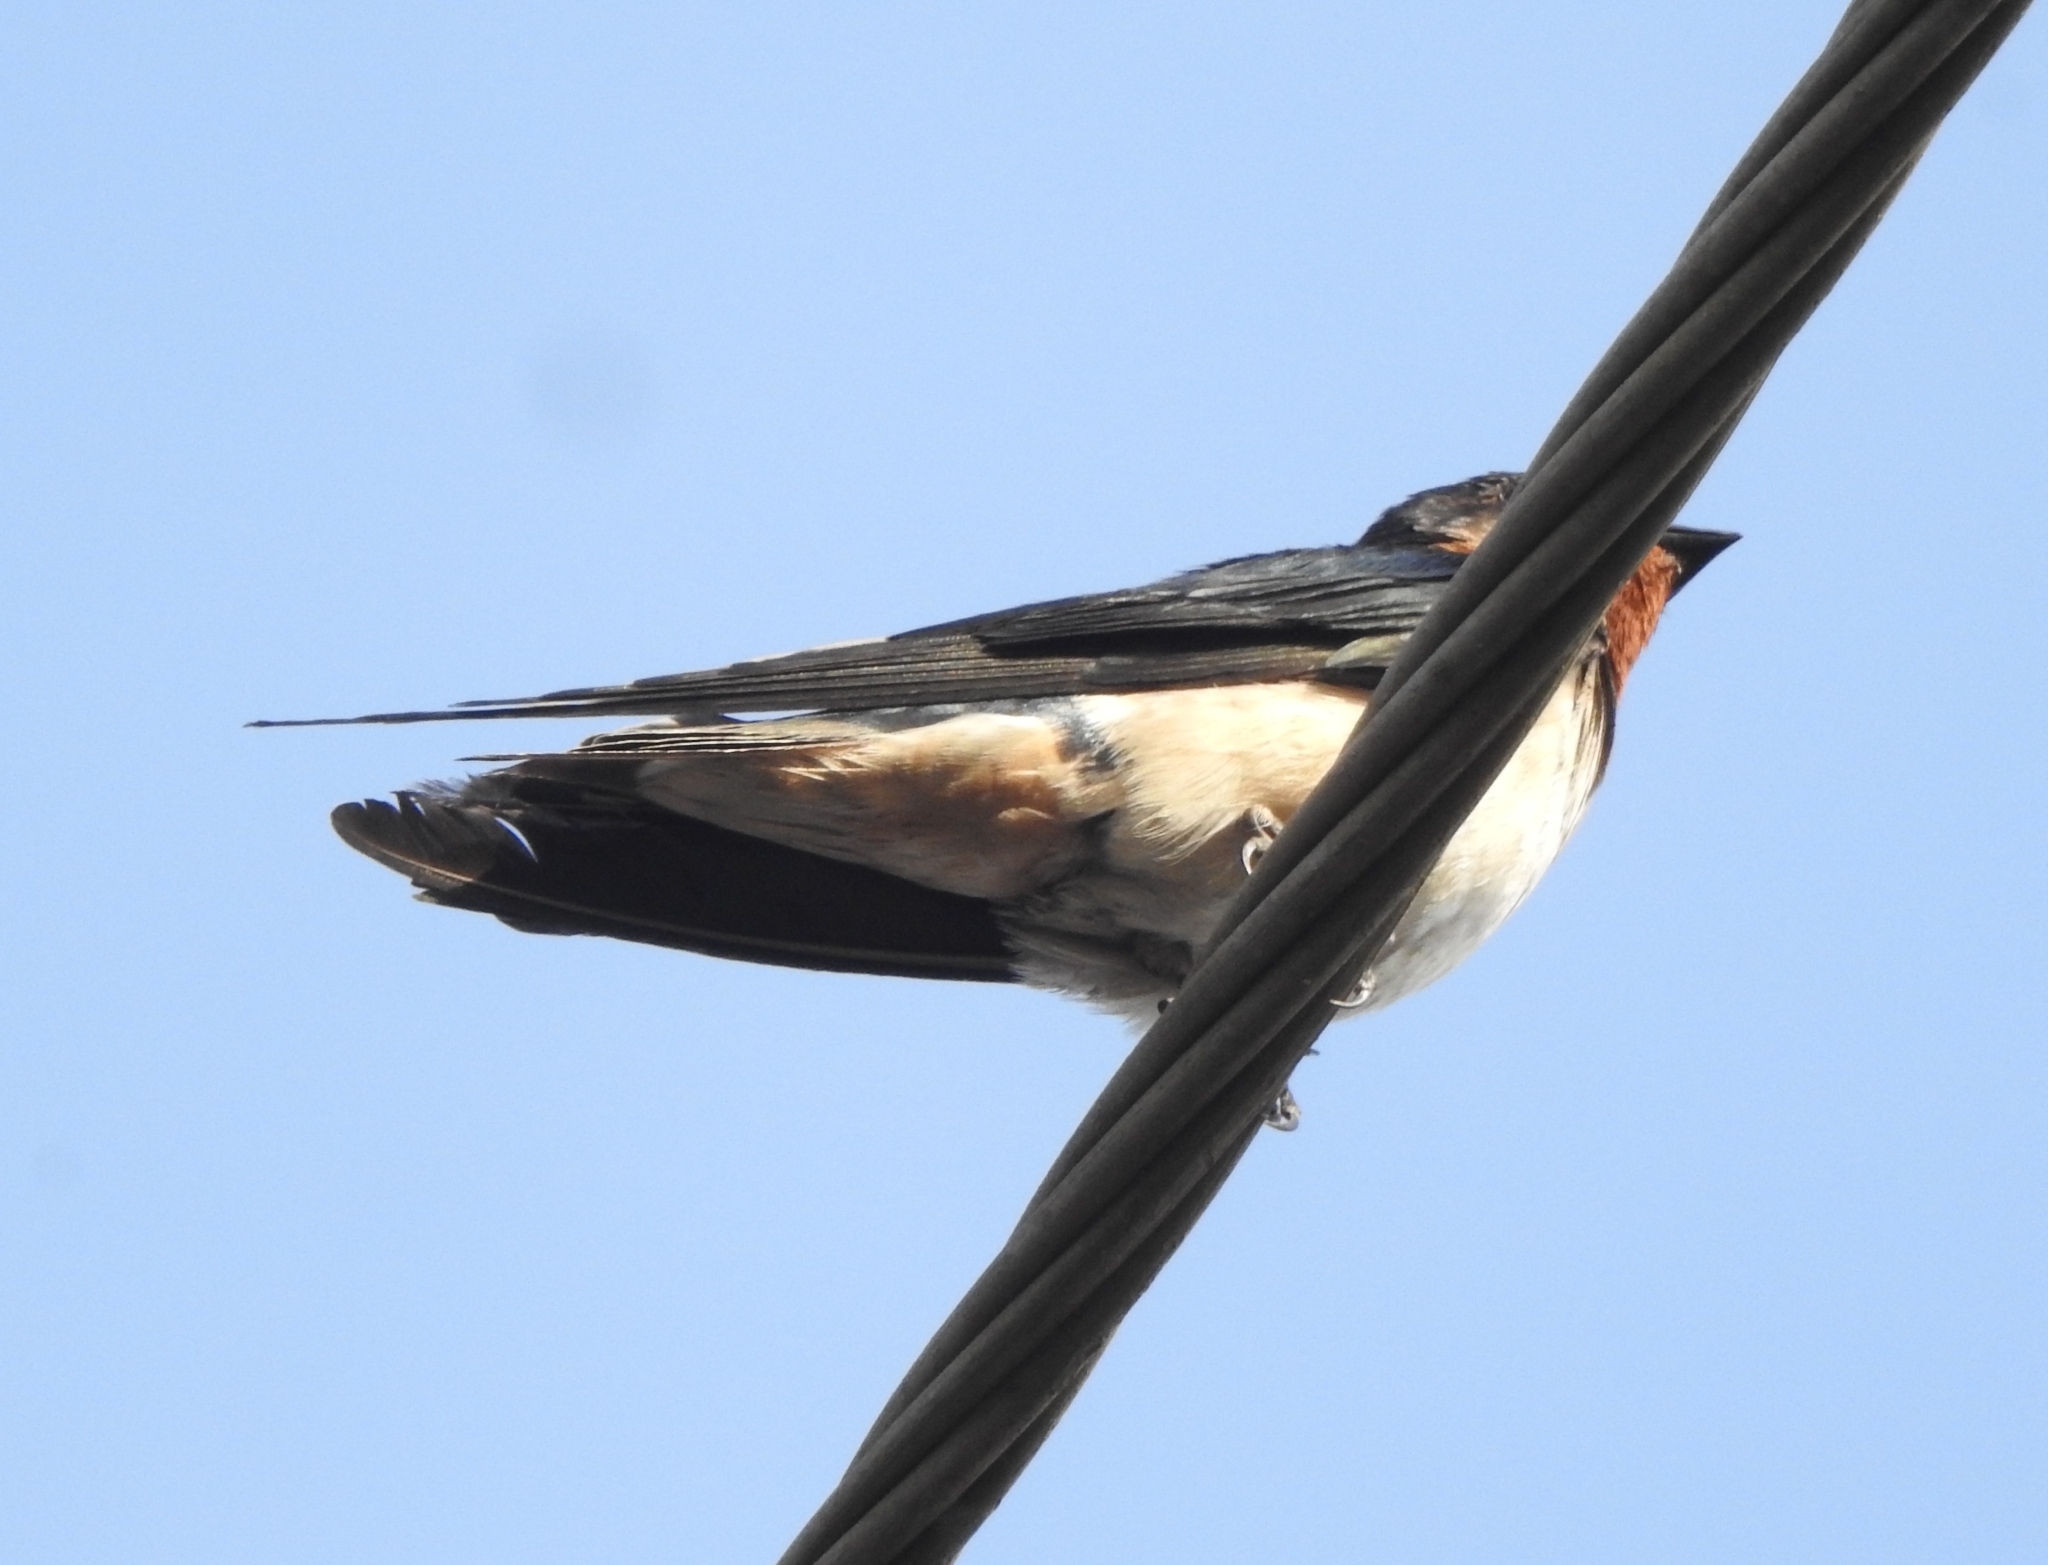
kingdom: Animalia
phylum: Chordata
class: Aves
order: Passeriformes
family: Hirundinidae
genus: Hirundo
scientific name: Hirundo rustica
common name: Barn swallow
